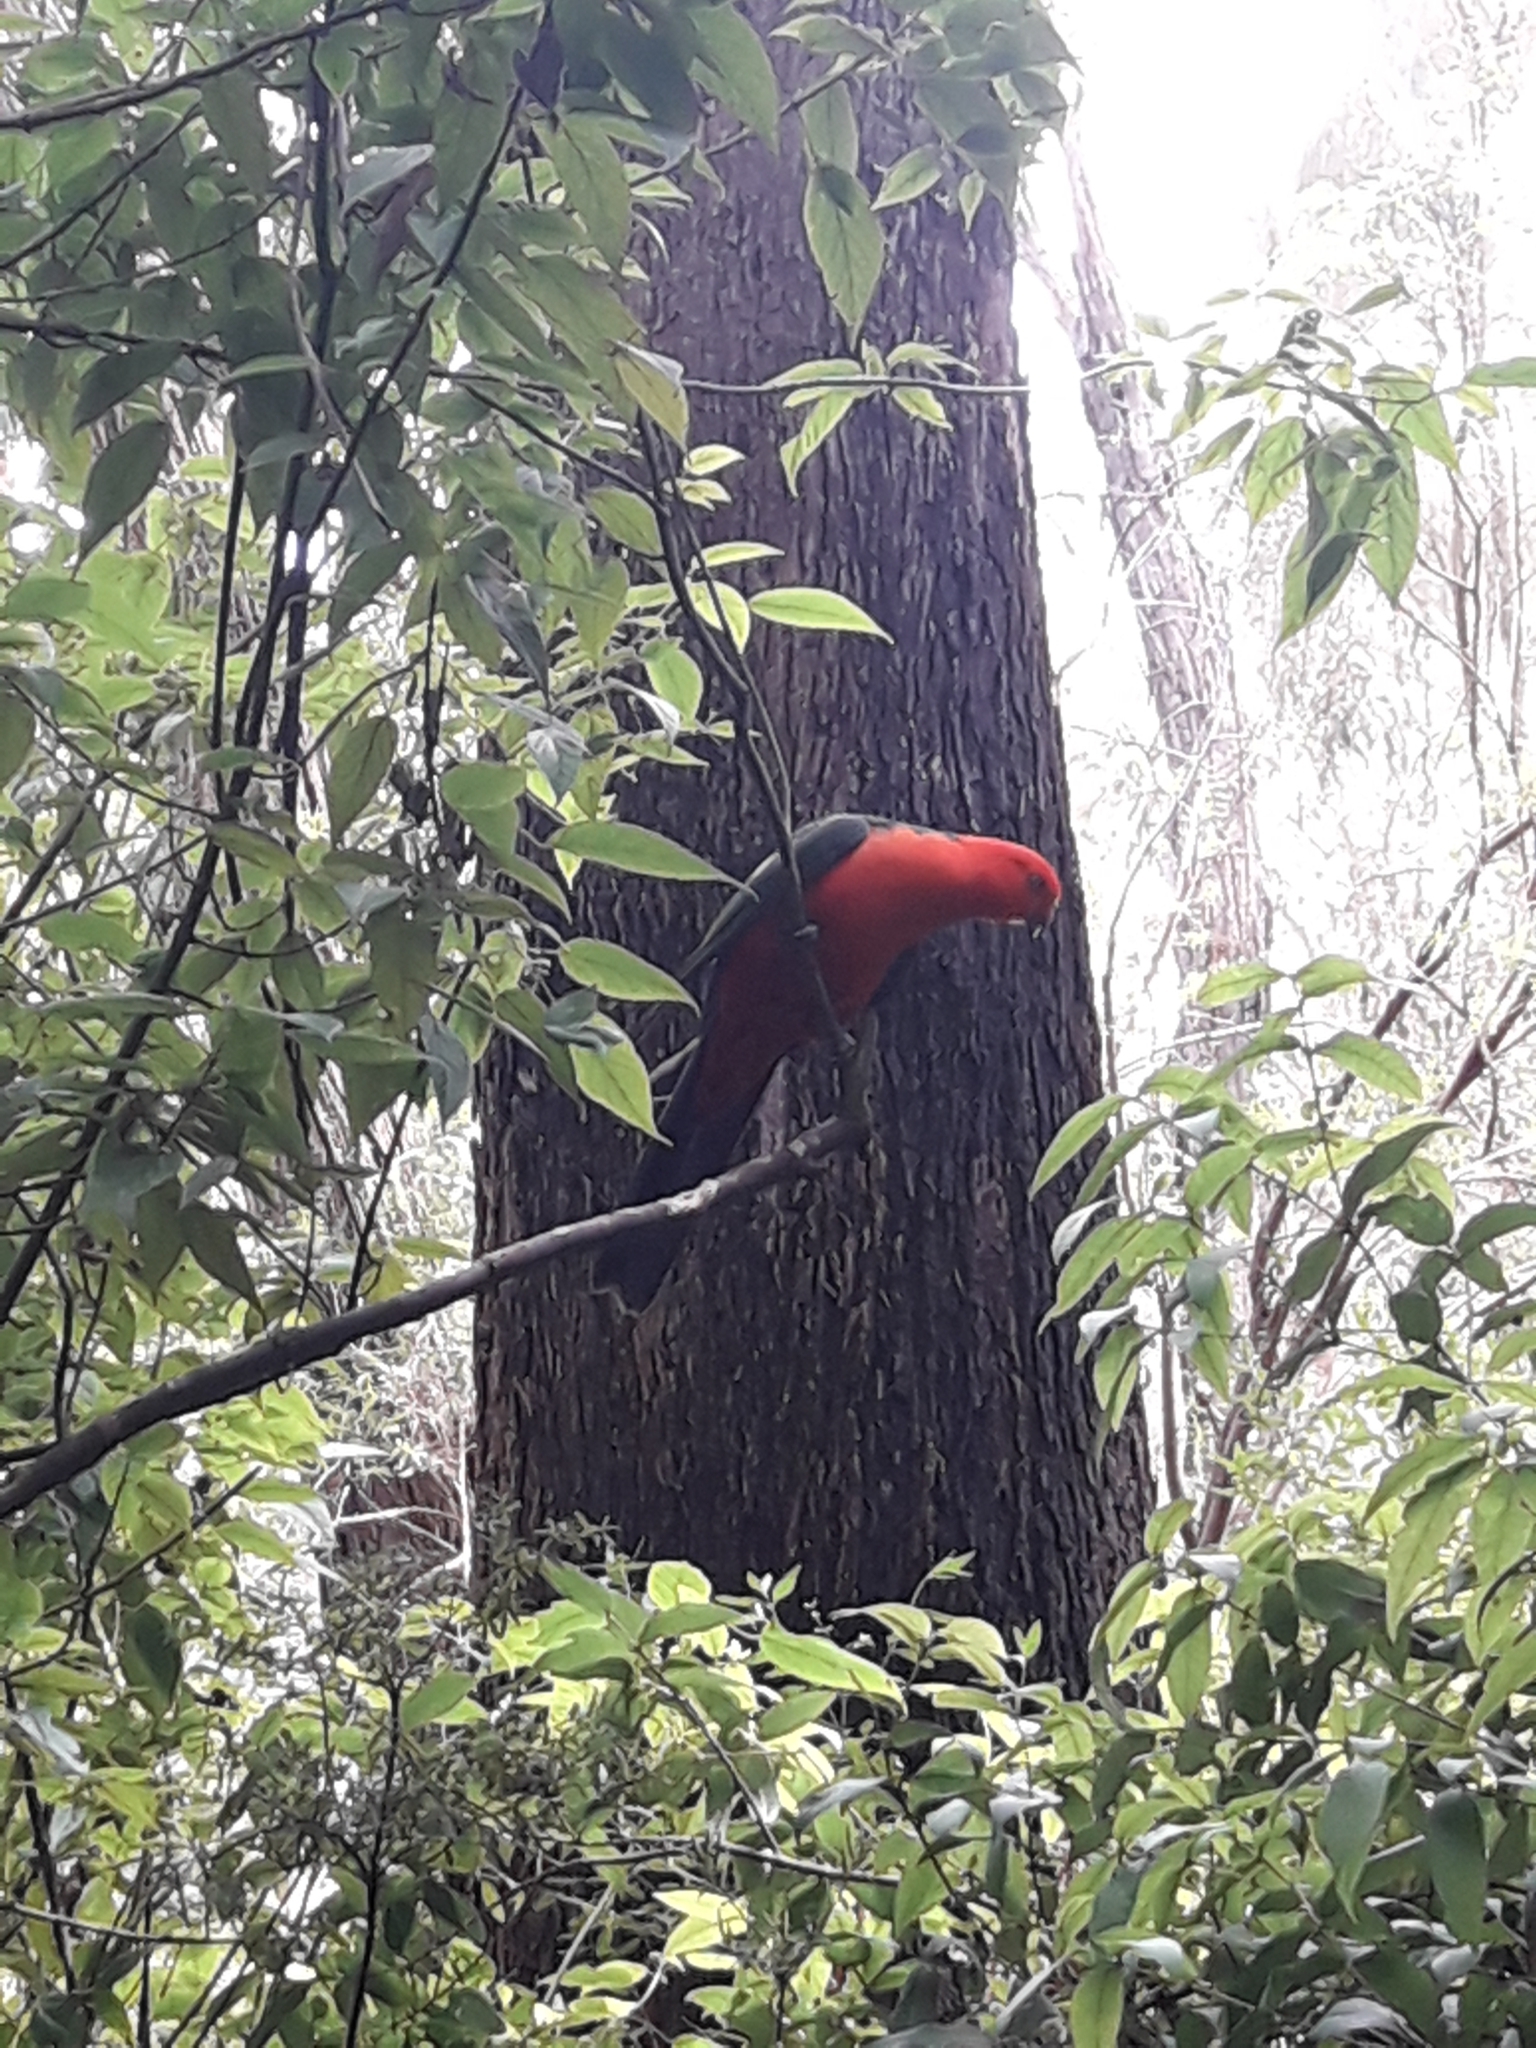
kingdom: Animalia
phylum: Chordata
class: Aves
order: Psittaciformes
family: Psittacidae
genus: Alisterus
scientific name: Alisterus scapularis
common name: Australian king parrot
